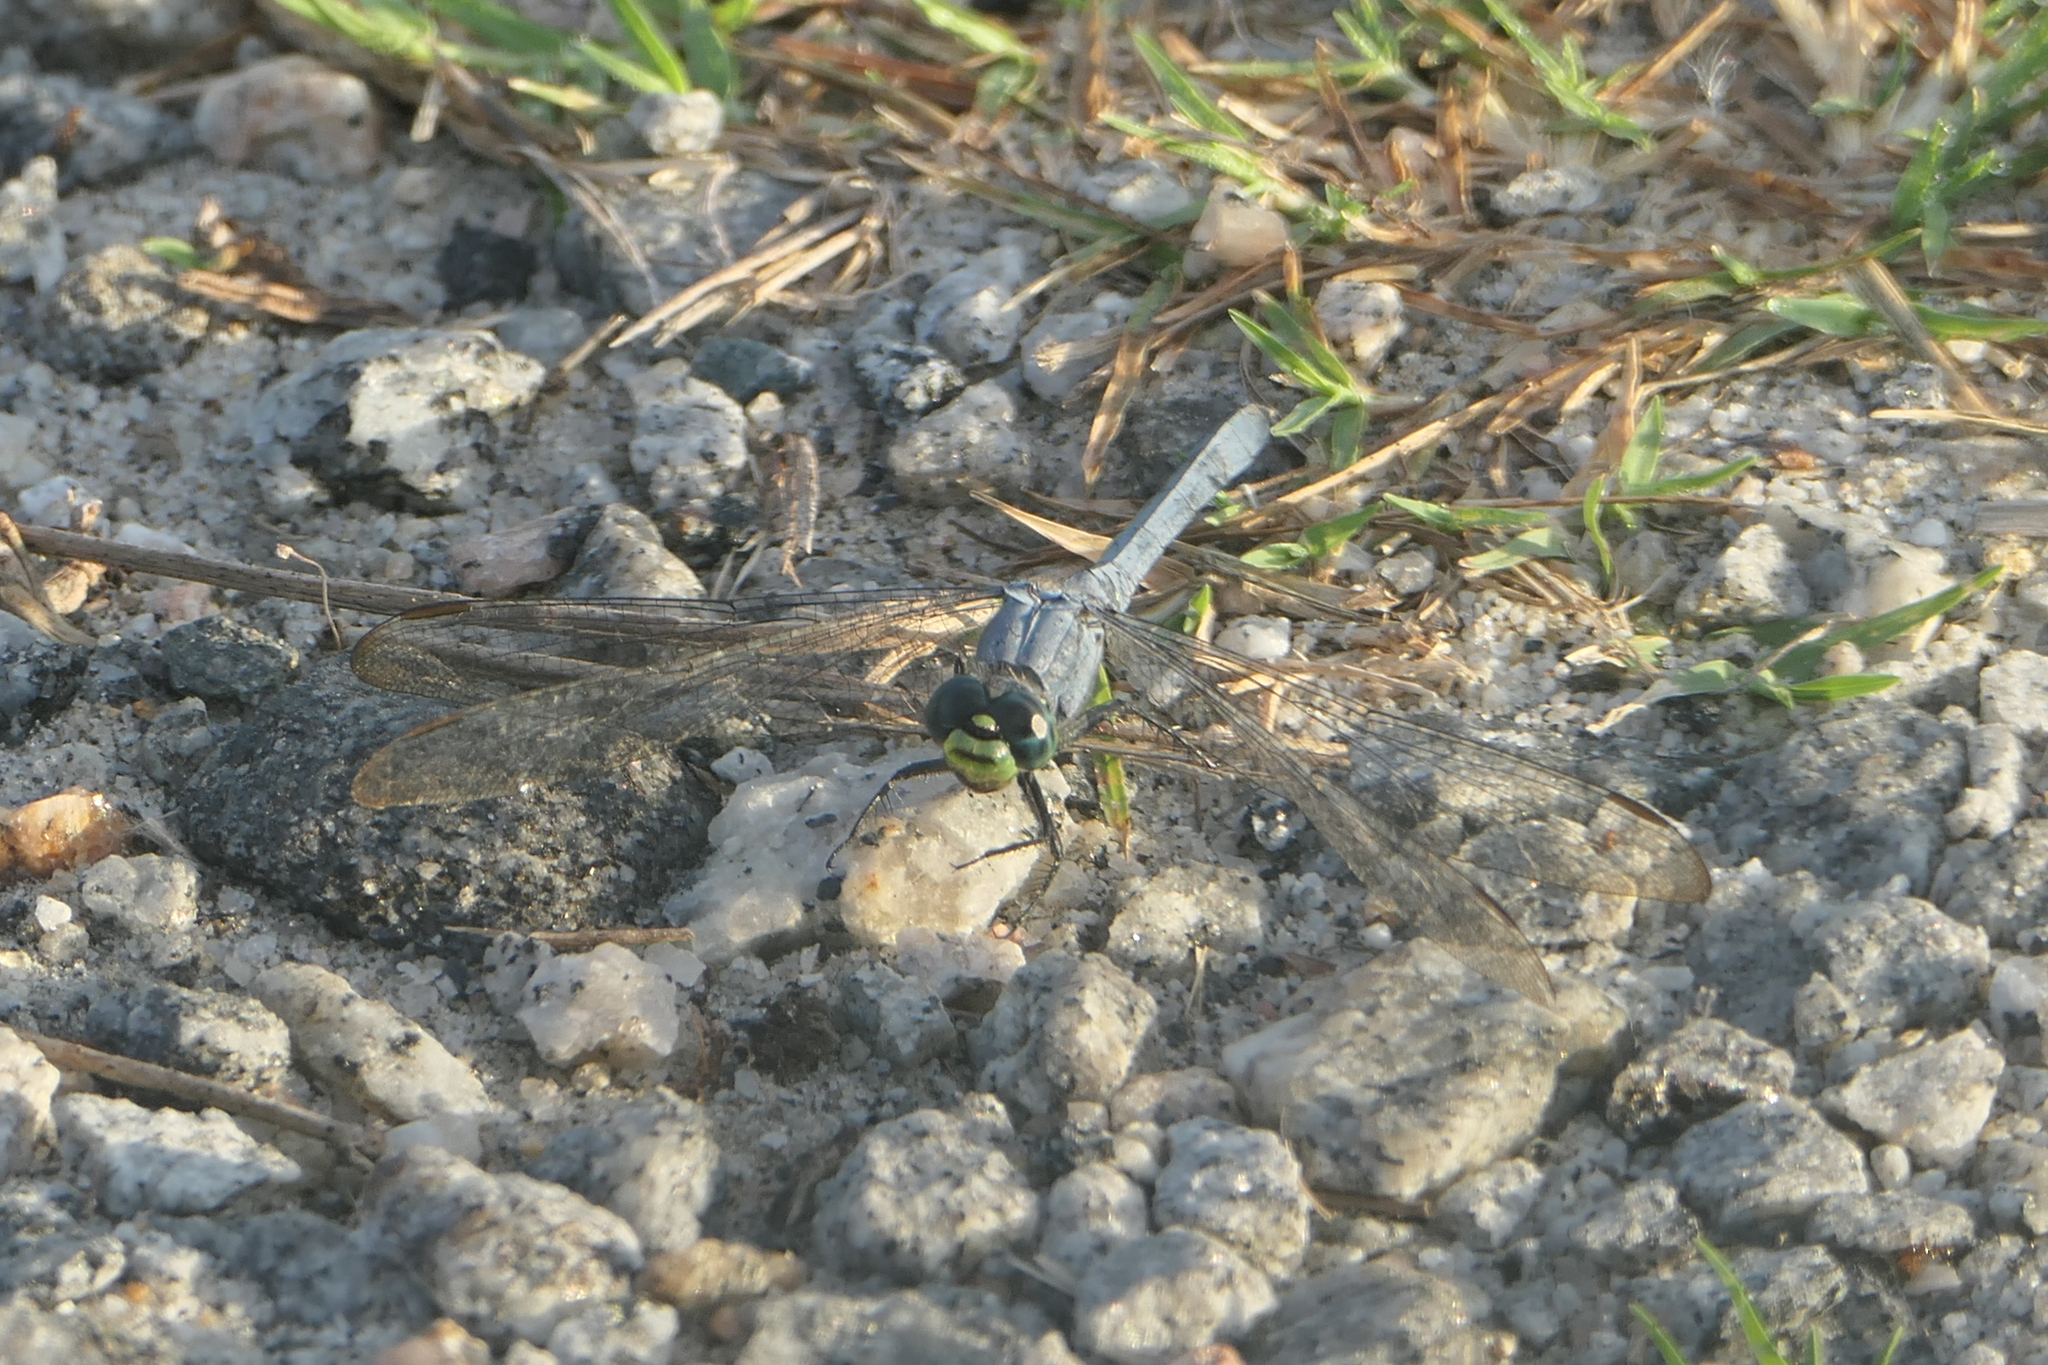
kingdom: Animalia
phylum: Arthropoda
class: Insecta
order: Odonata
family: Libellulidae
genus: Erythemis
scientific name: Erythemis simplicicollis
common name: Eastern pondhawk
